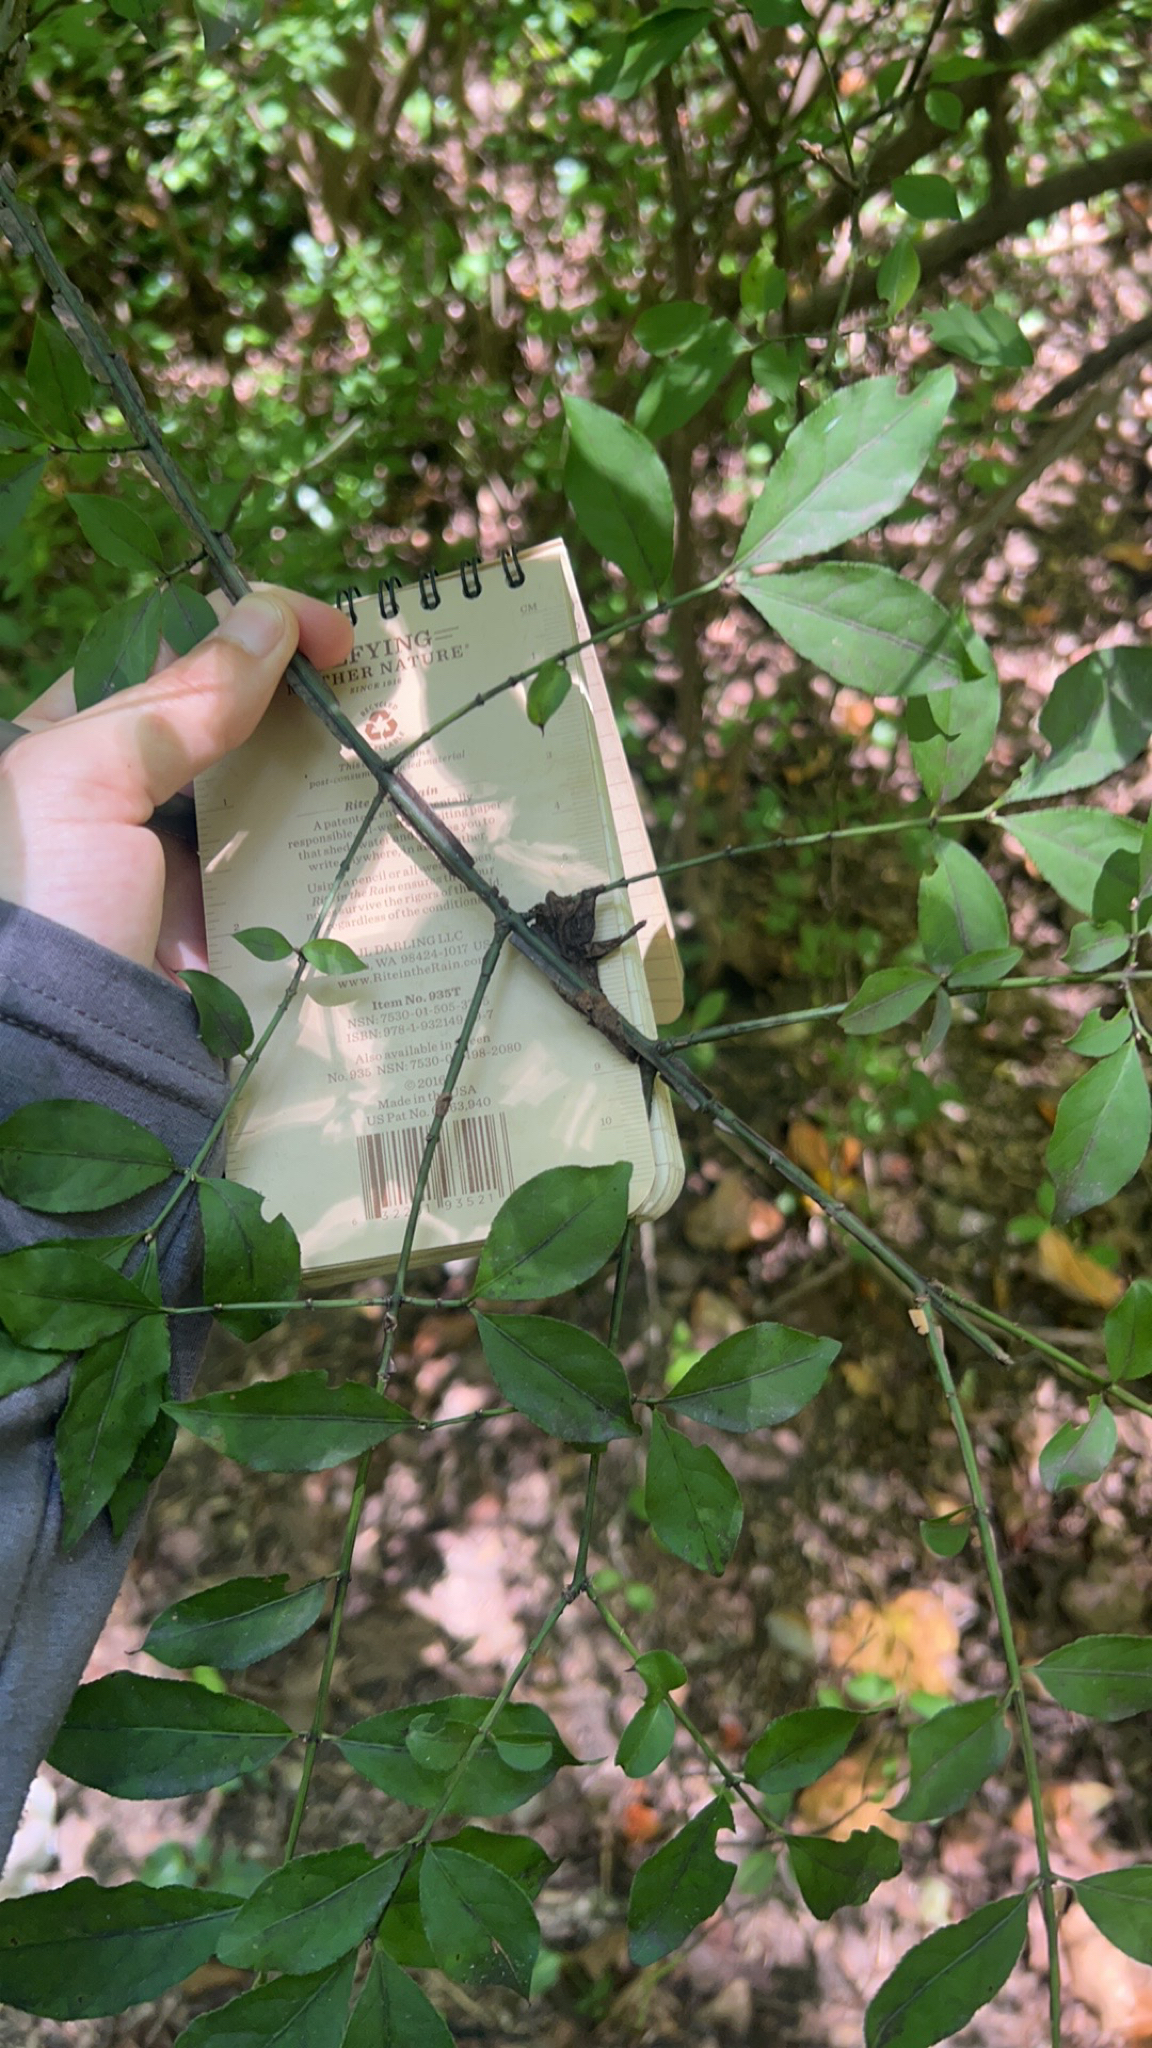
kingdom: Plantae
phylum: Tracheophyta
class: Magnoliopsida
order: Celastrales
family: Celastraceae
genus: Euonymus
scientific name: Euonymus alatus
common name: Winged euonymus
